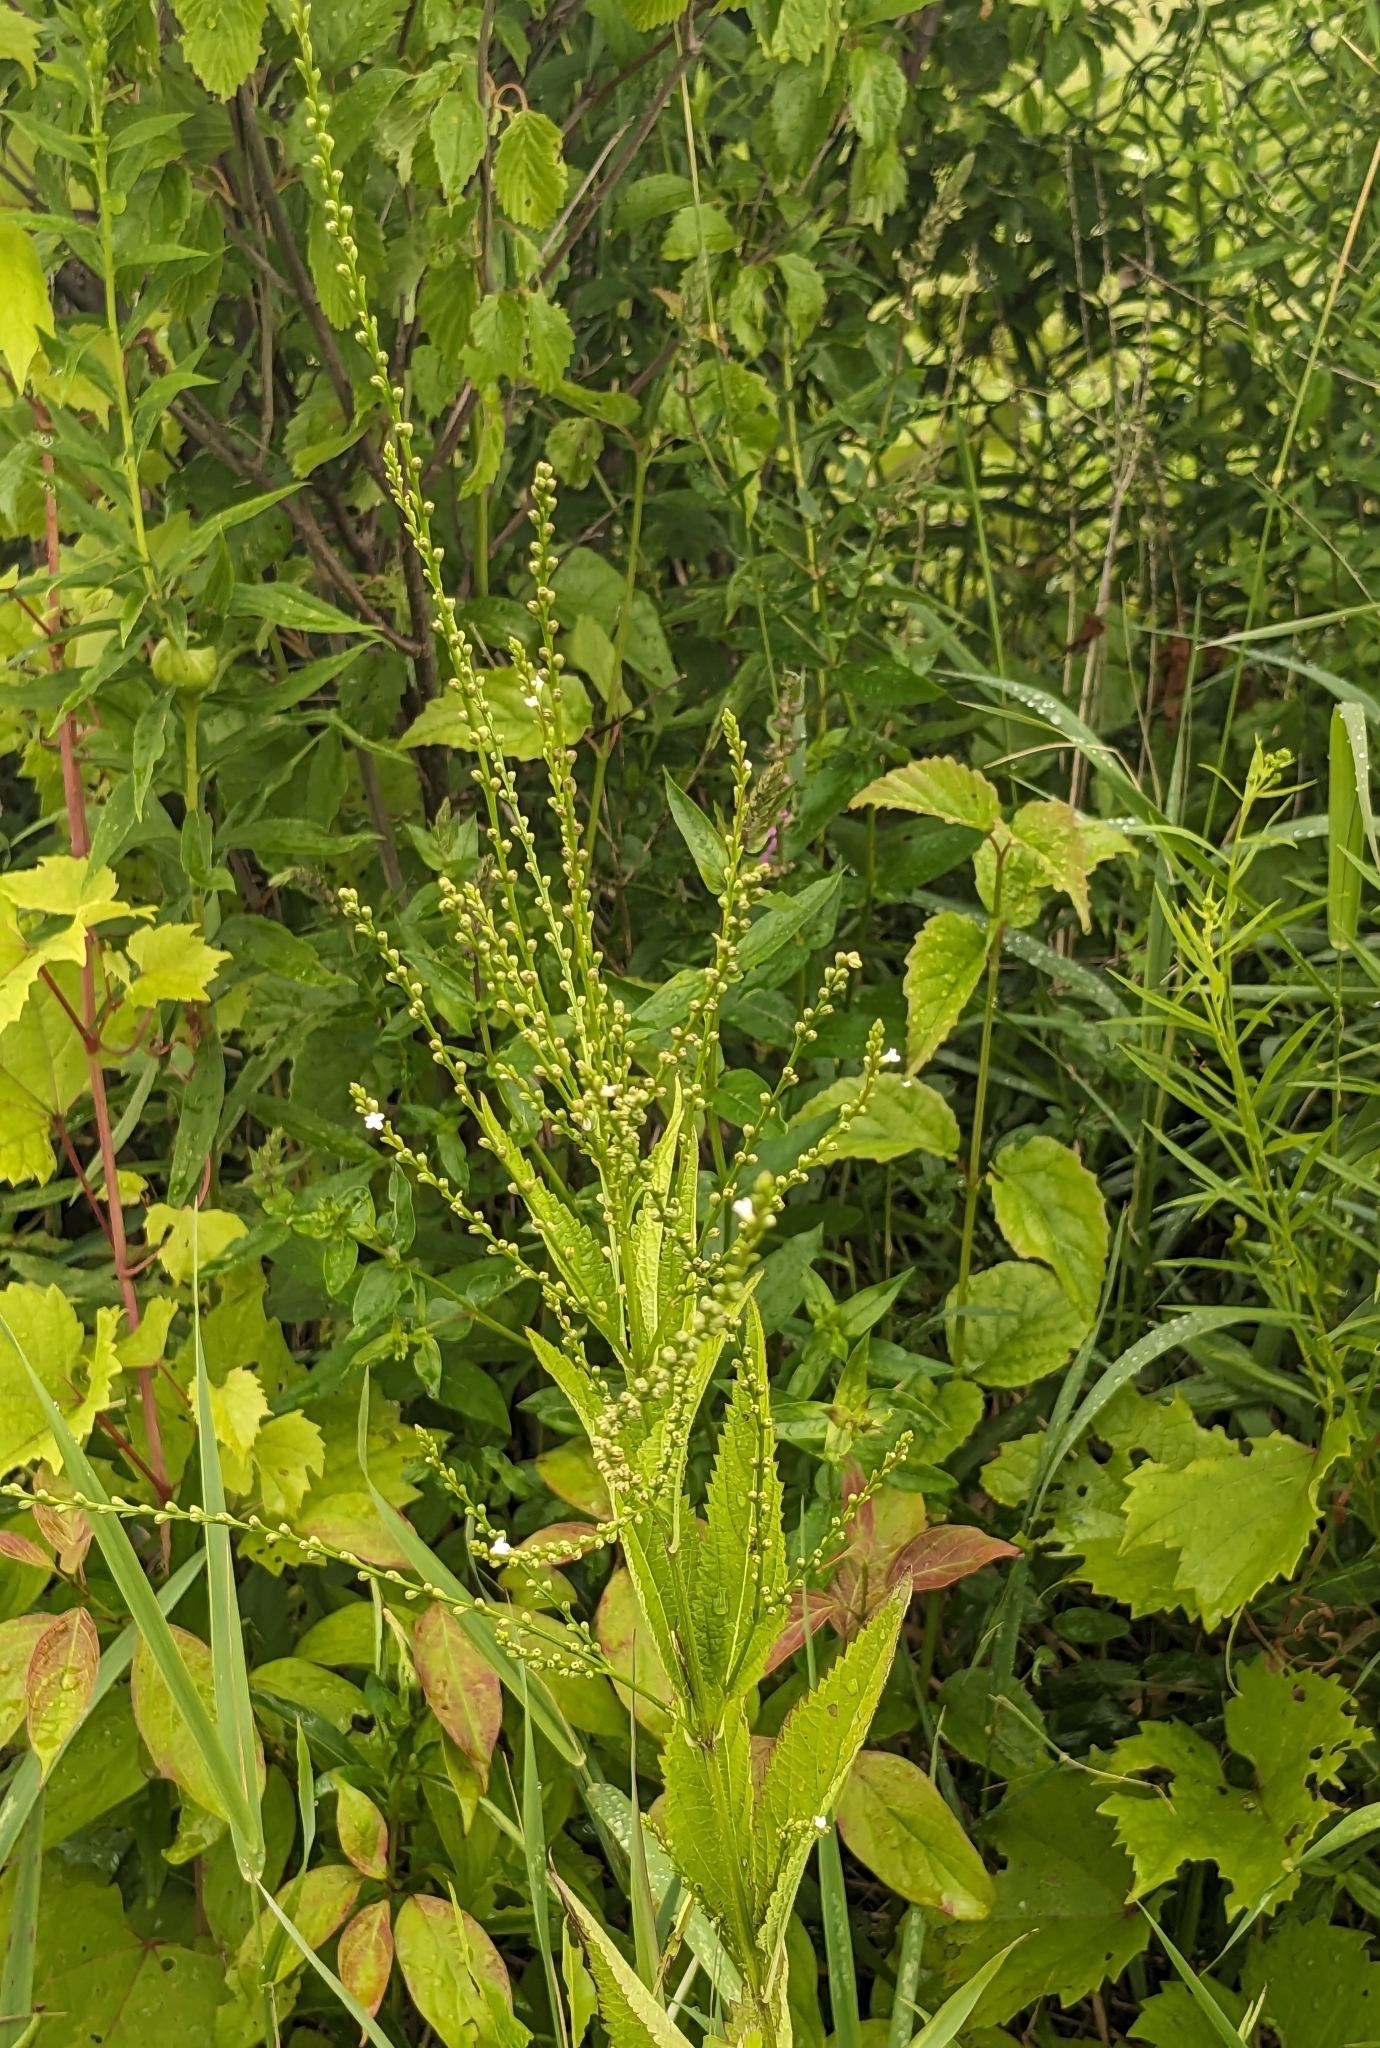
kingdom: Plantae
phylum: Tracheophyta
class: Magnoliopsida
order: Lamiales
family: Verbenaceae
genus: Verbena
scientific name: Verbena urticifolia
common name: Nettle-leaved vervain
